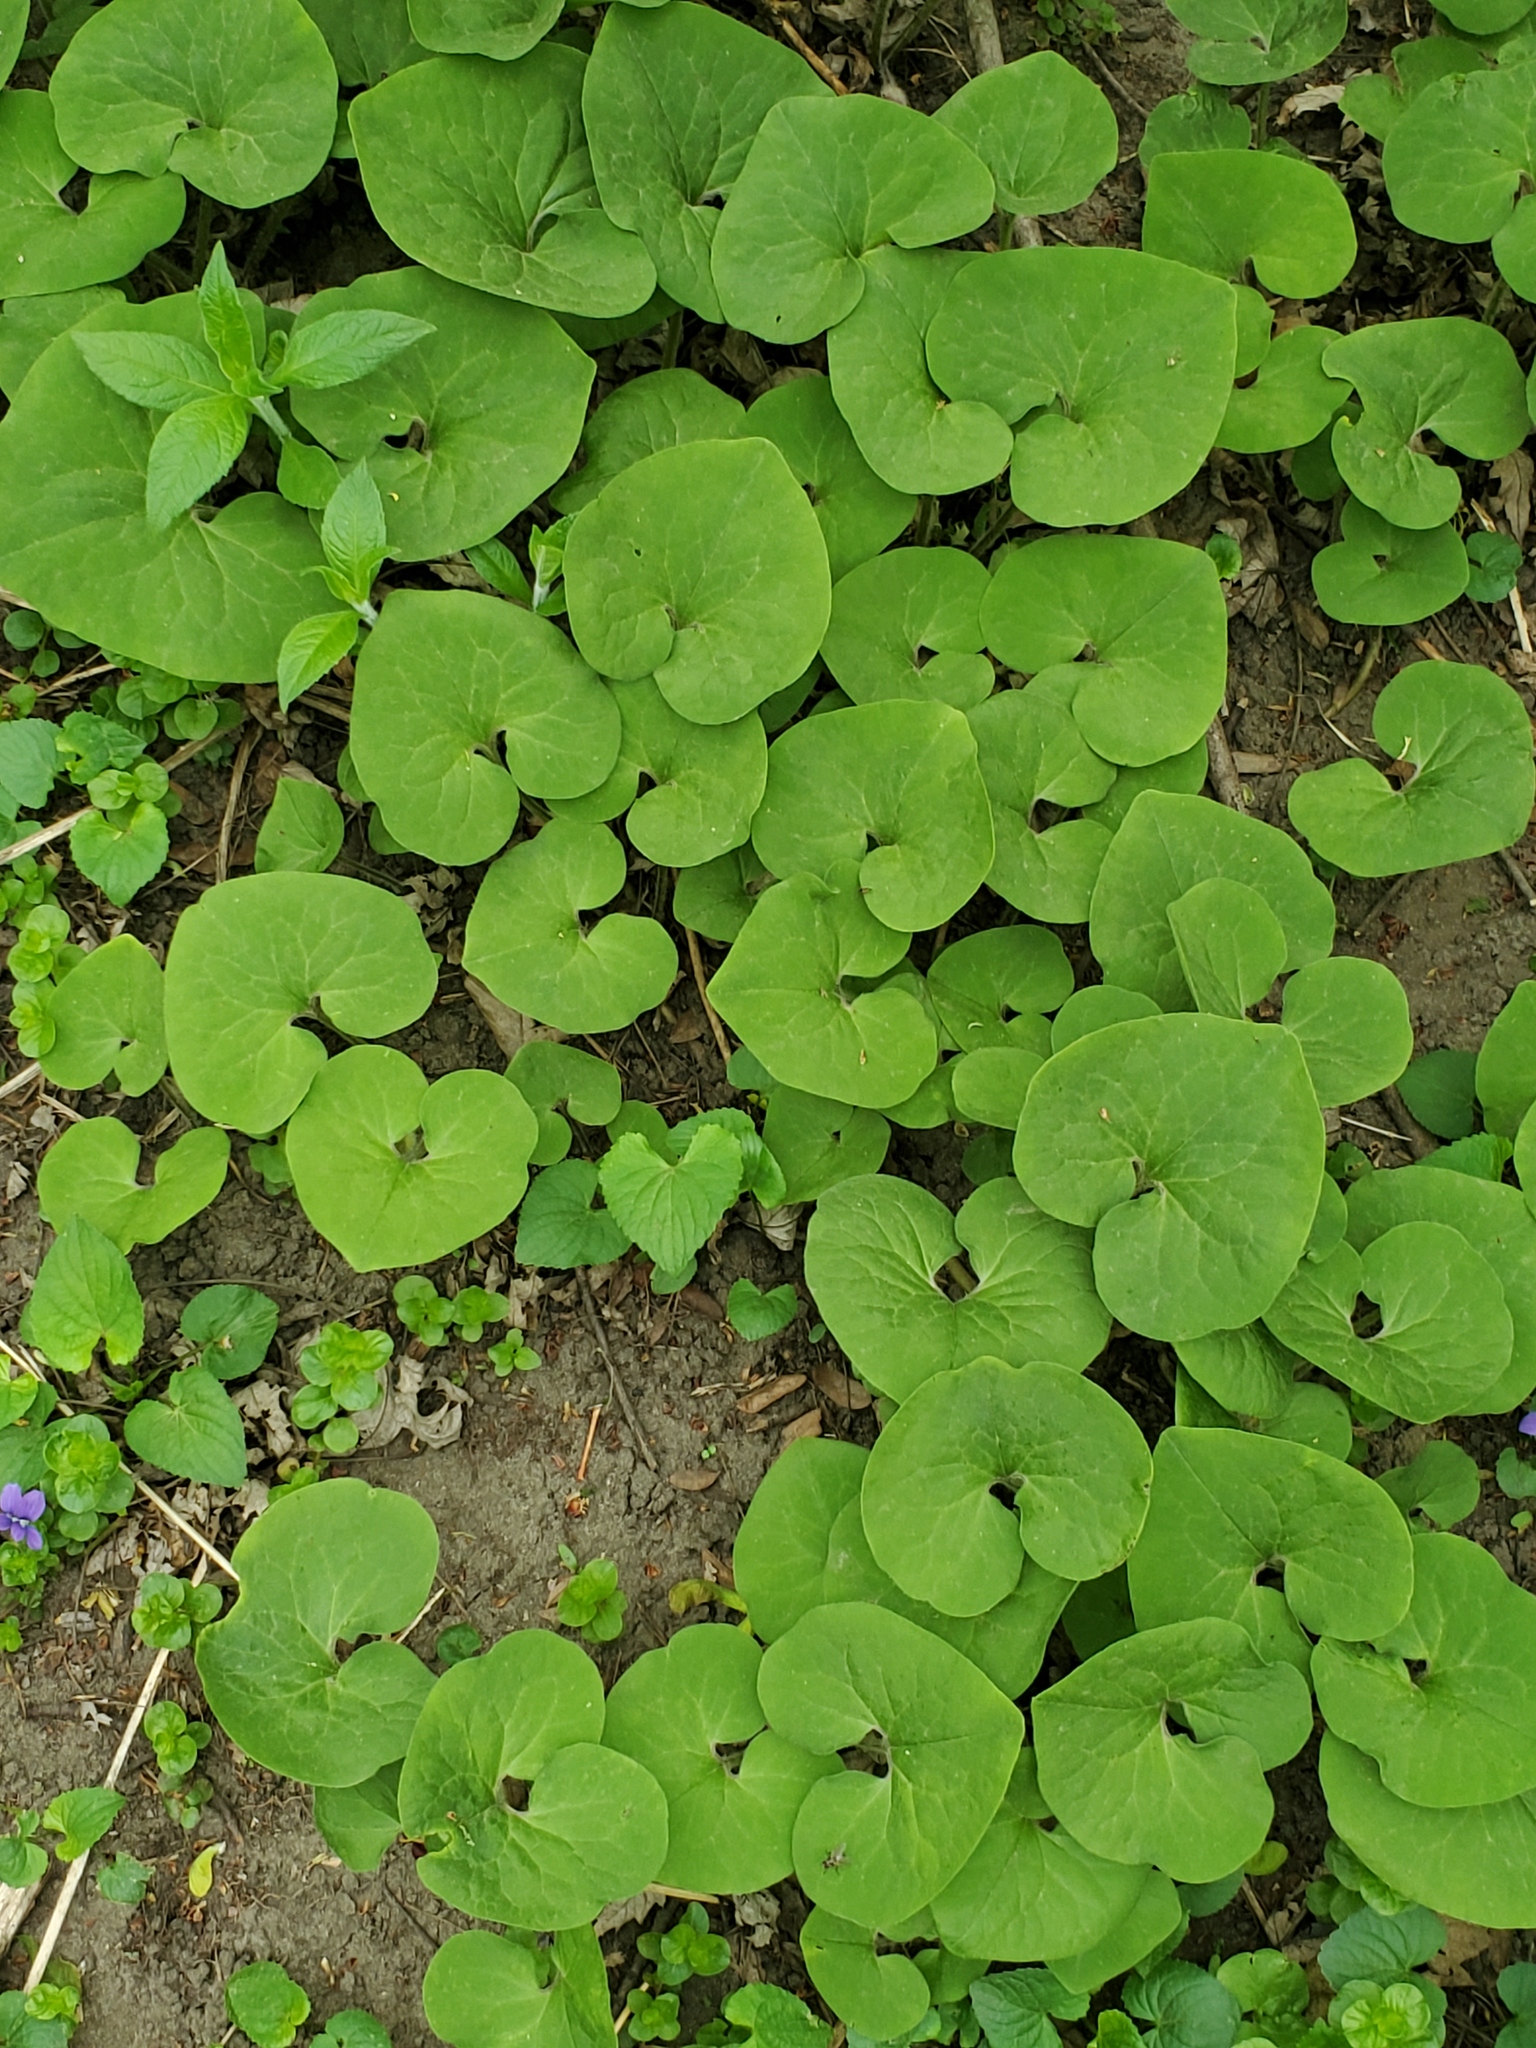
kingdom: Plantae
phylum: Tracheophyta
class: Magnoliopsida
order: Piperales
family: Aristolochiaceae
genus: Asarum
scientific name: Asarum canadense
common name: Wild ginger
